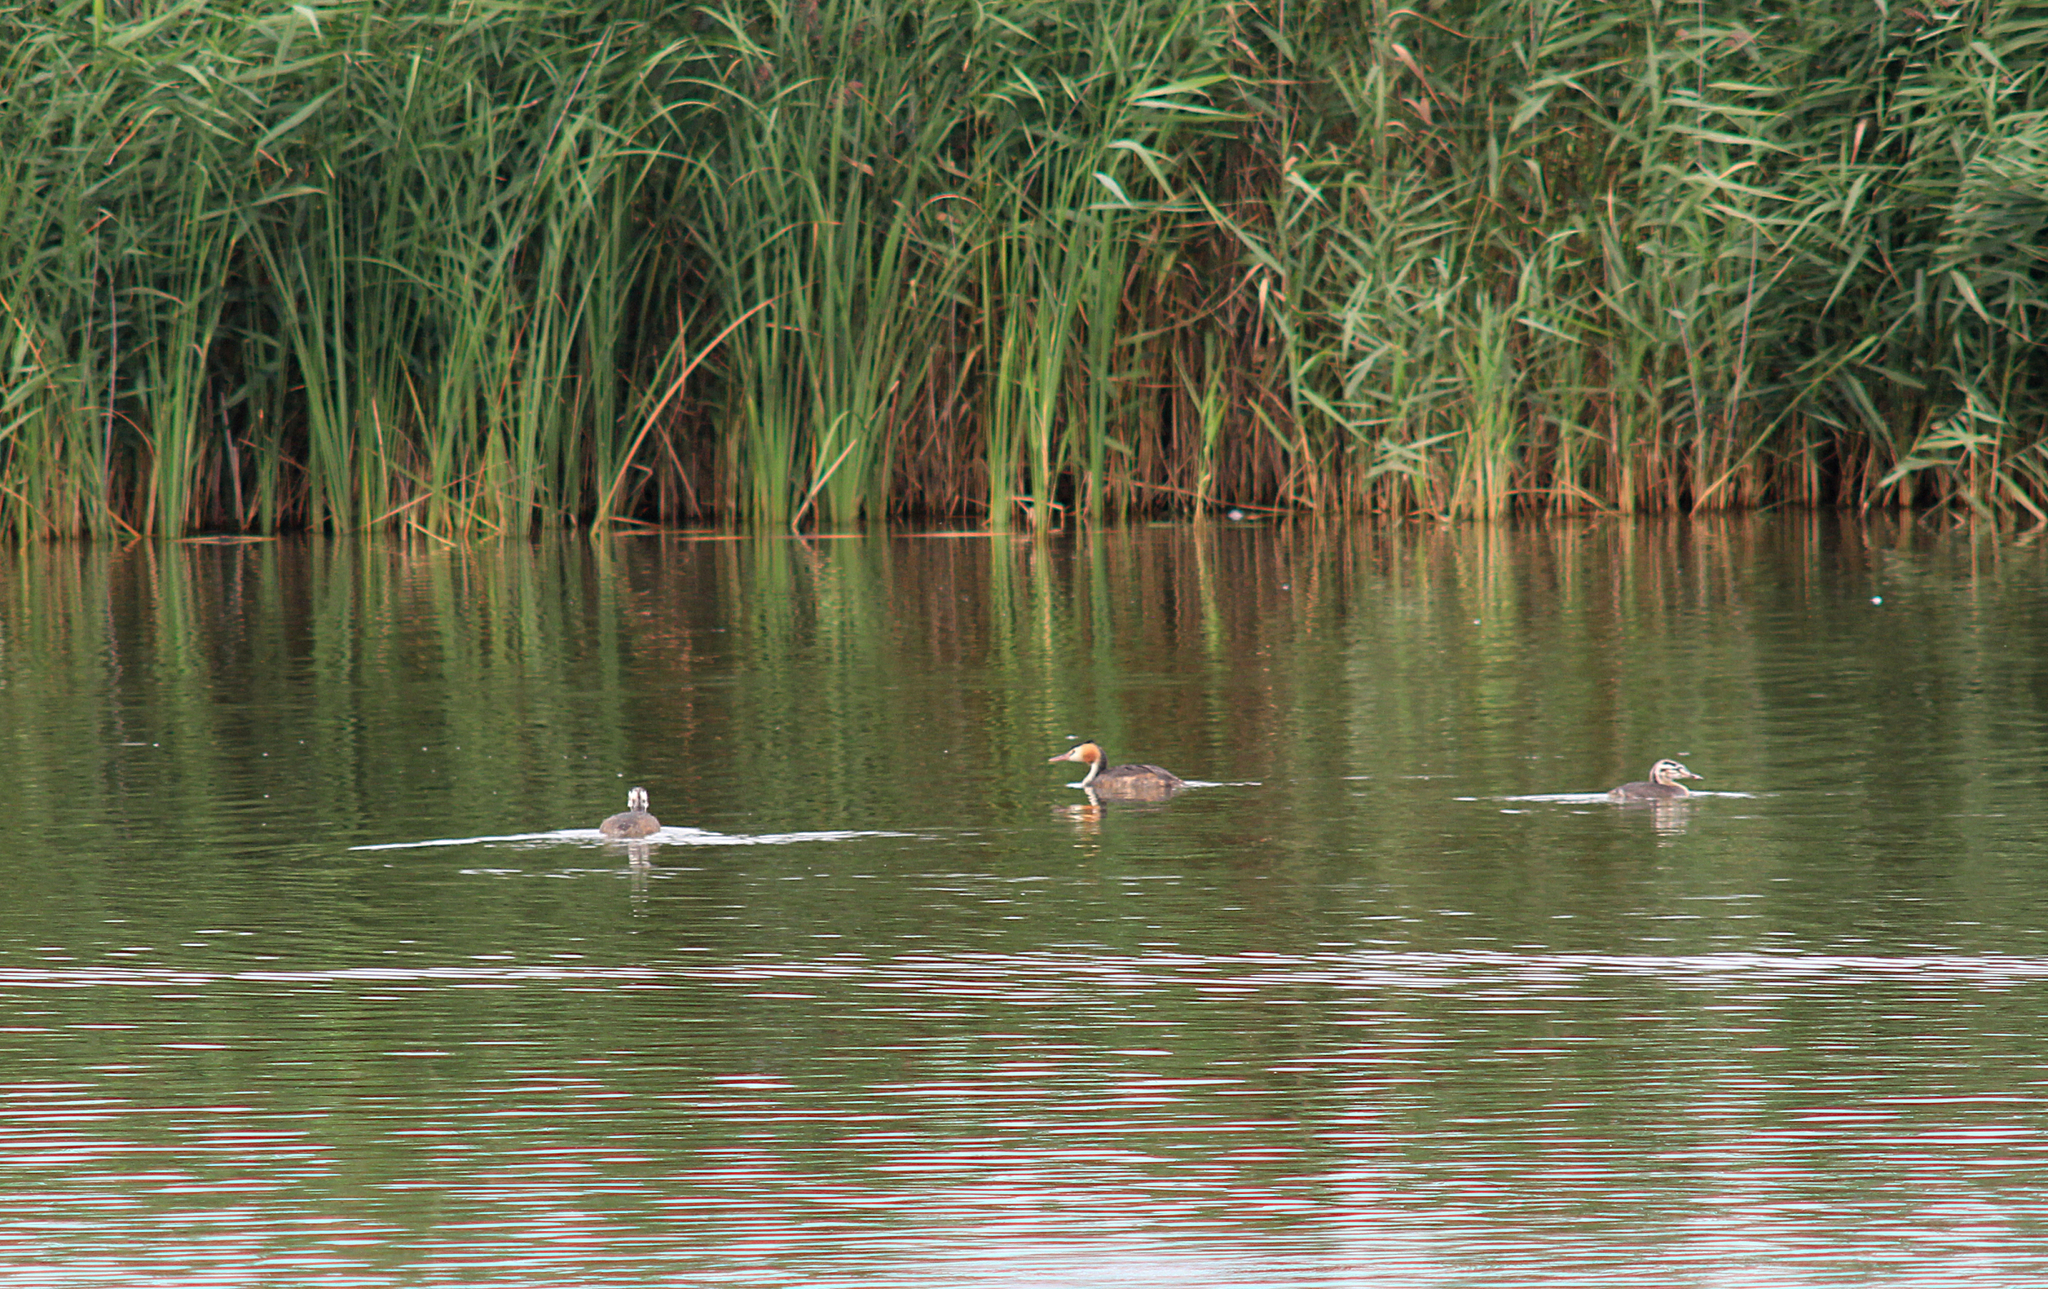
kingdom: Animalia
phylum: Chordata
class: Aves
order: Podicipediformes
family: Podicipedidae
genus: Podiceps
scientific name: Podiceps cristatus
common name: Great crested grebe
